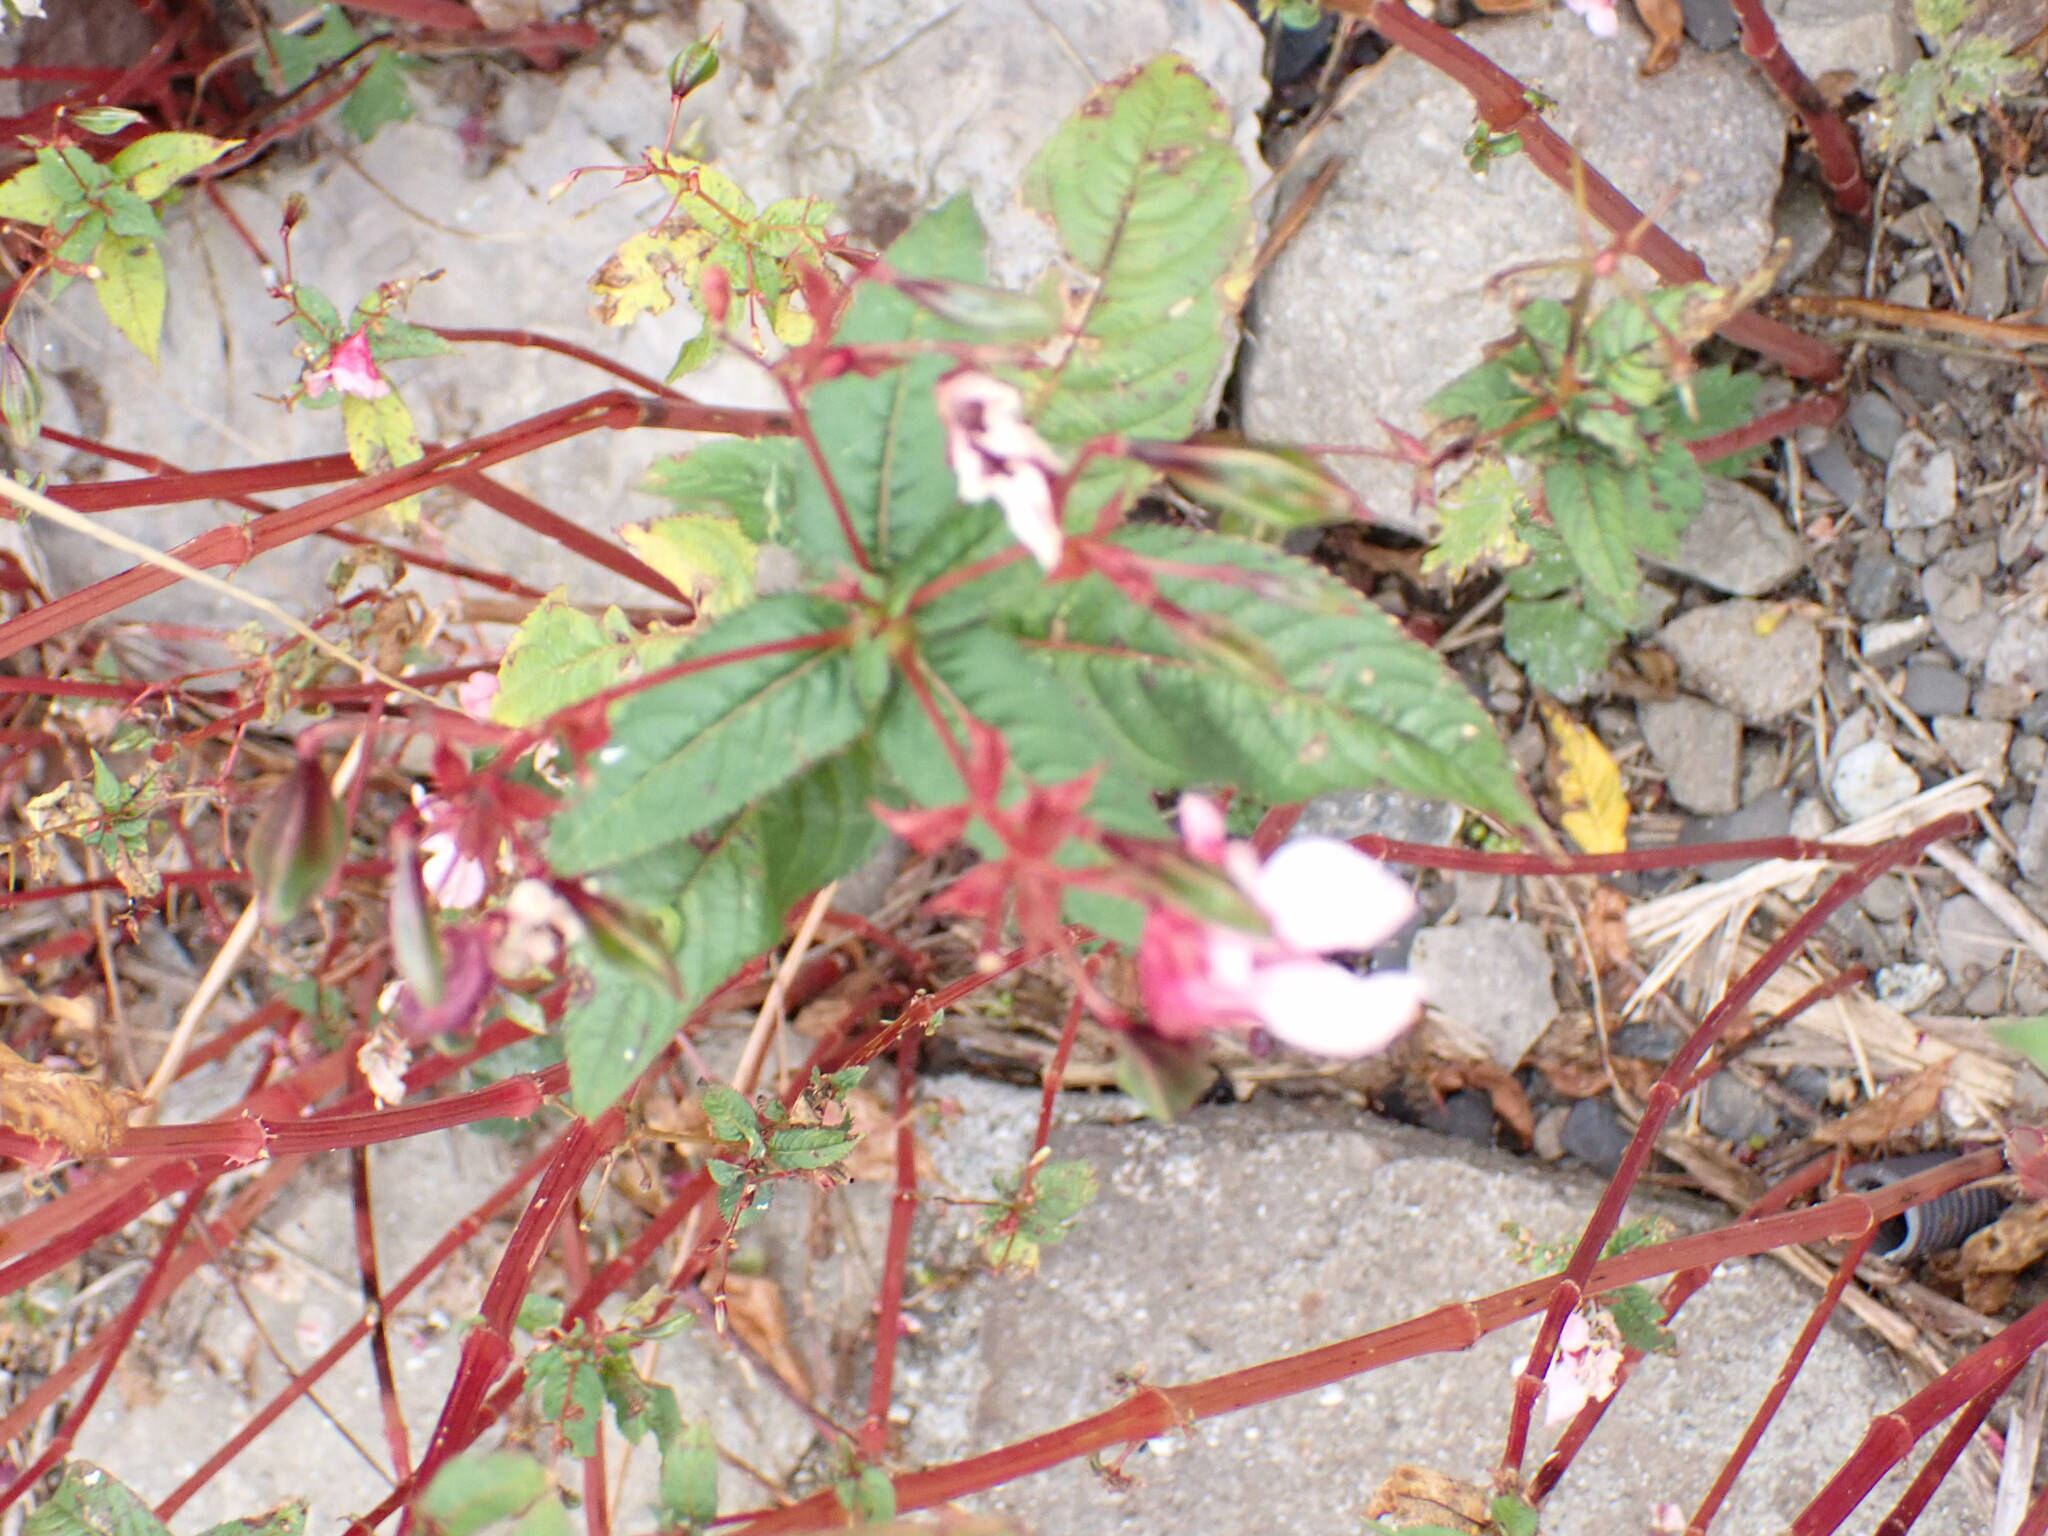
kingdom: Plantae
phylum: Tracheophyta
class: Magnoliopsida
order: Ericales
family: Balsaminaceae
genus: Impatiens
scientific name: Impatiens glandulifera
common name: Himalayan balsam
